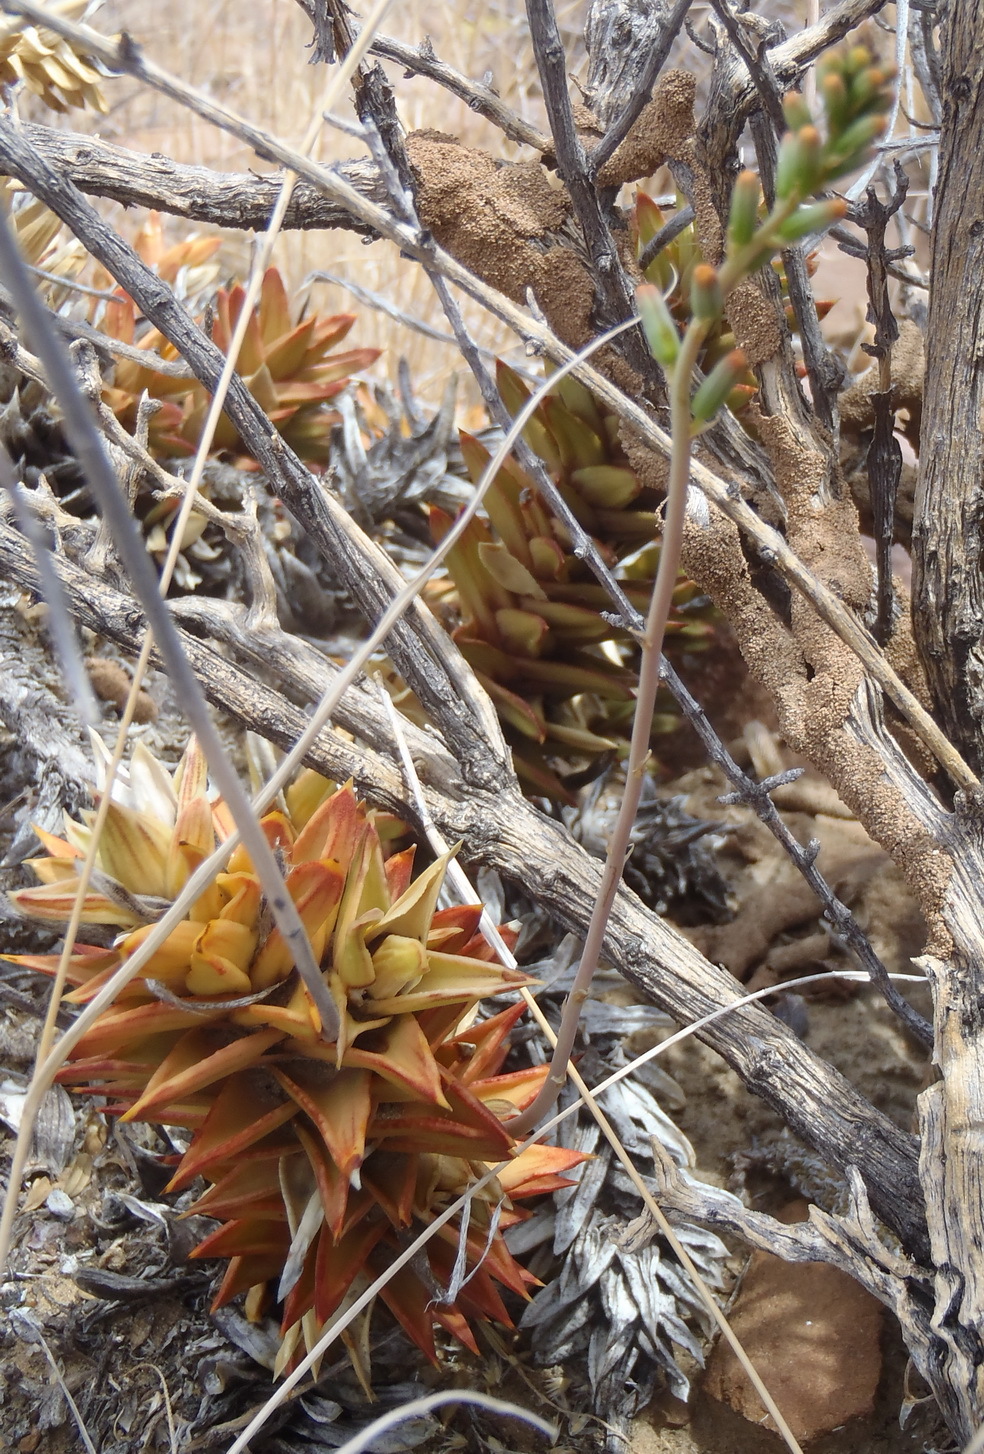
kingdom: Plantae
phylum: Tracheophyta
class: Liliopsida
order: Asparagales
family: Asphodelaceae
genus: Astroloba
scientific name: Astroloba pentagona
